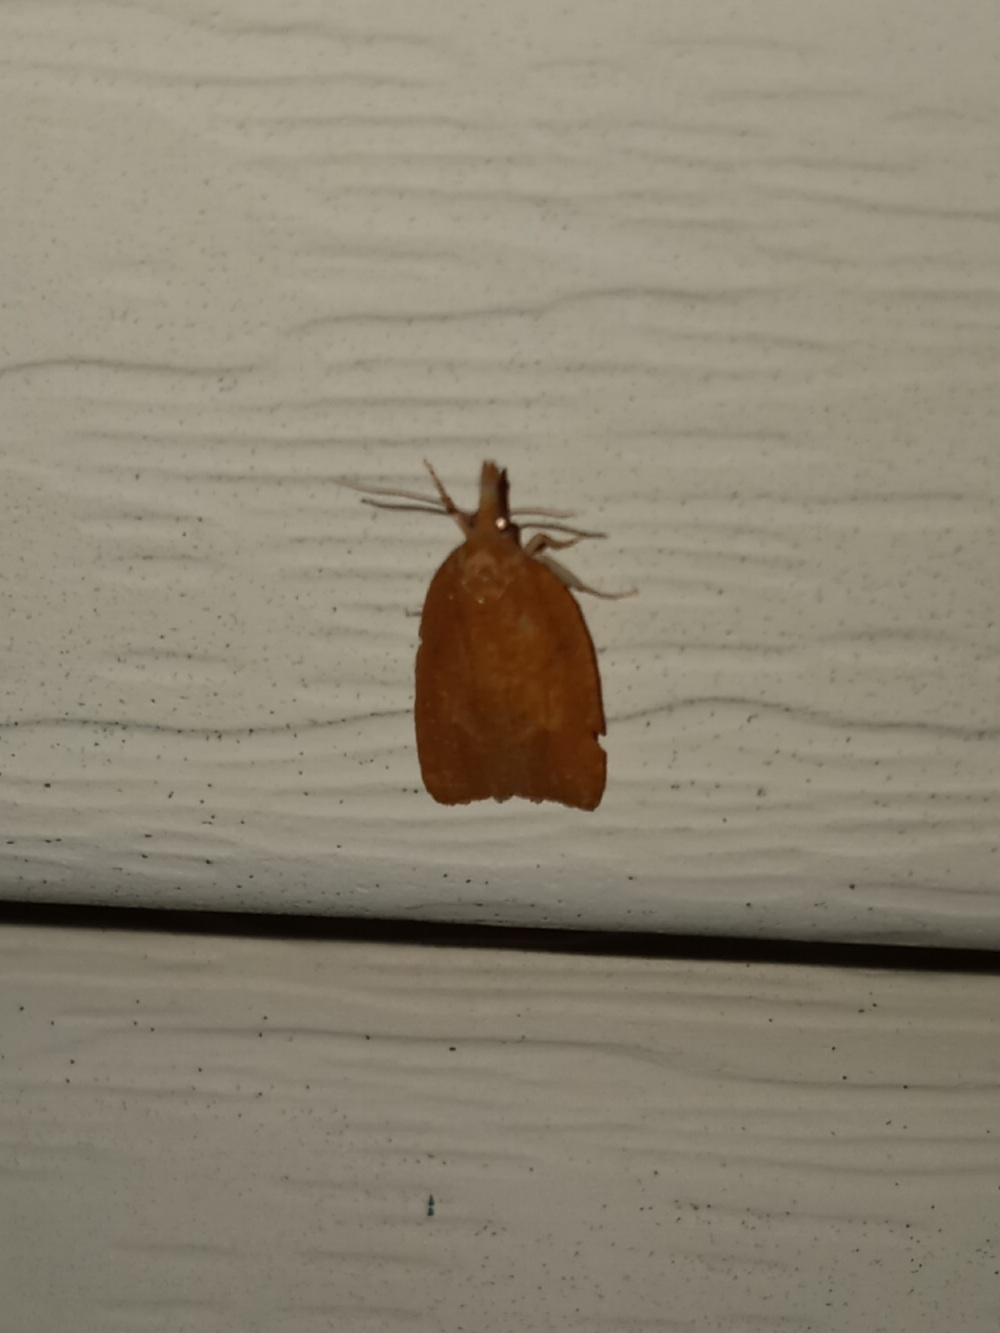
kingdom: Animalia
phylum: Arthropoda
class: Insecta
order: Lepidoptera
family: Tortricidae
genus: Cenopis
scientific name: Cenopis directana
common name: Chokecherry leafroller moth
